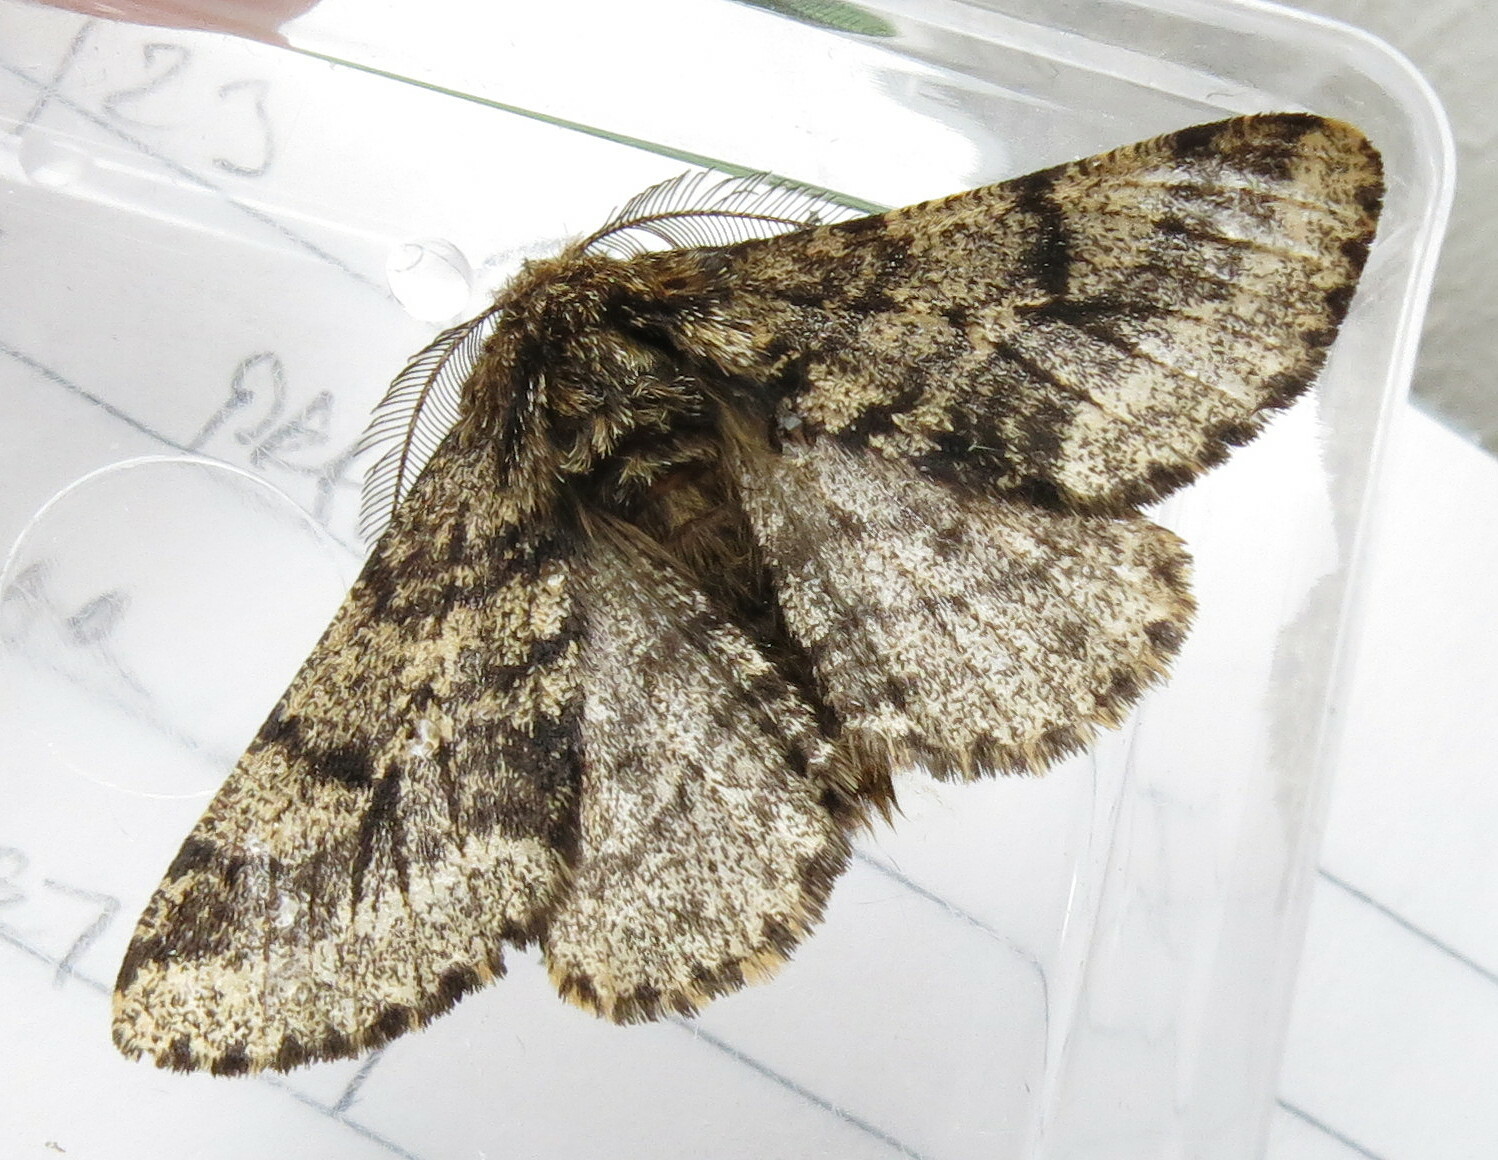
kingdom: Animalia
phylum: Arthropoda
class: Insecta
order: Lepidoptera
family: Geometridae
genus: Lycia
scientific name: Lycia hirtaria
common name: Brindled beauty
